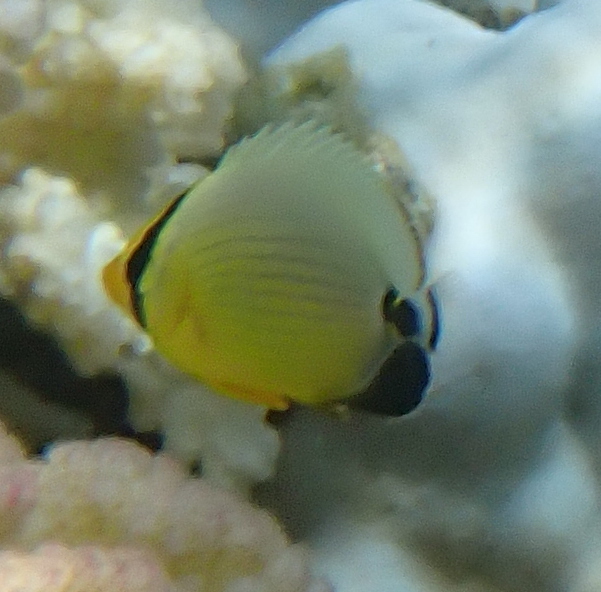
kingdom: Animalia
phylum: Chordata
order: Perciformes
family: Chaetodontidae
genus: Chaetodon
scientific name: Chaetodon austriacus
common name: Exquisite butterflyfish
